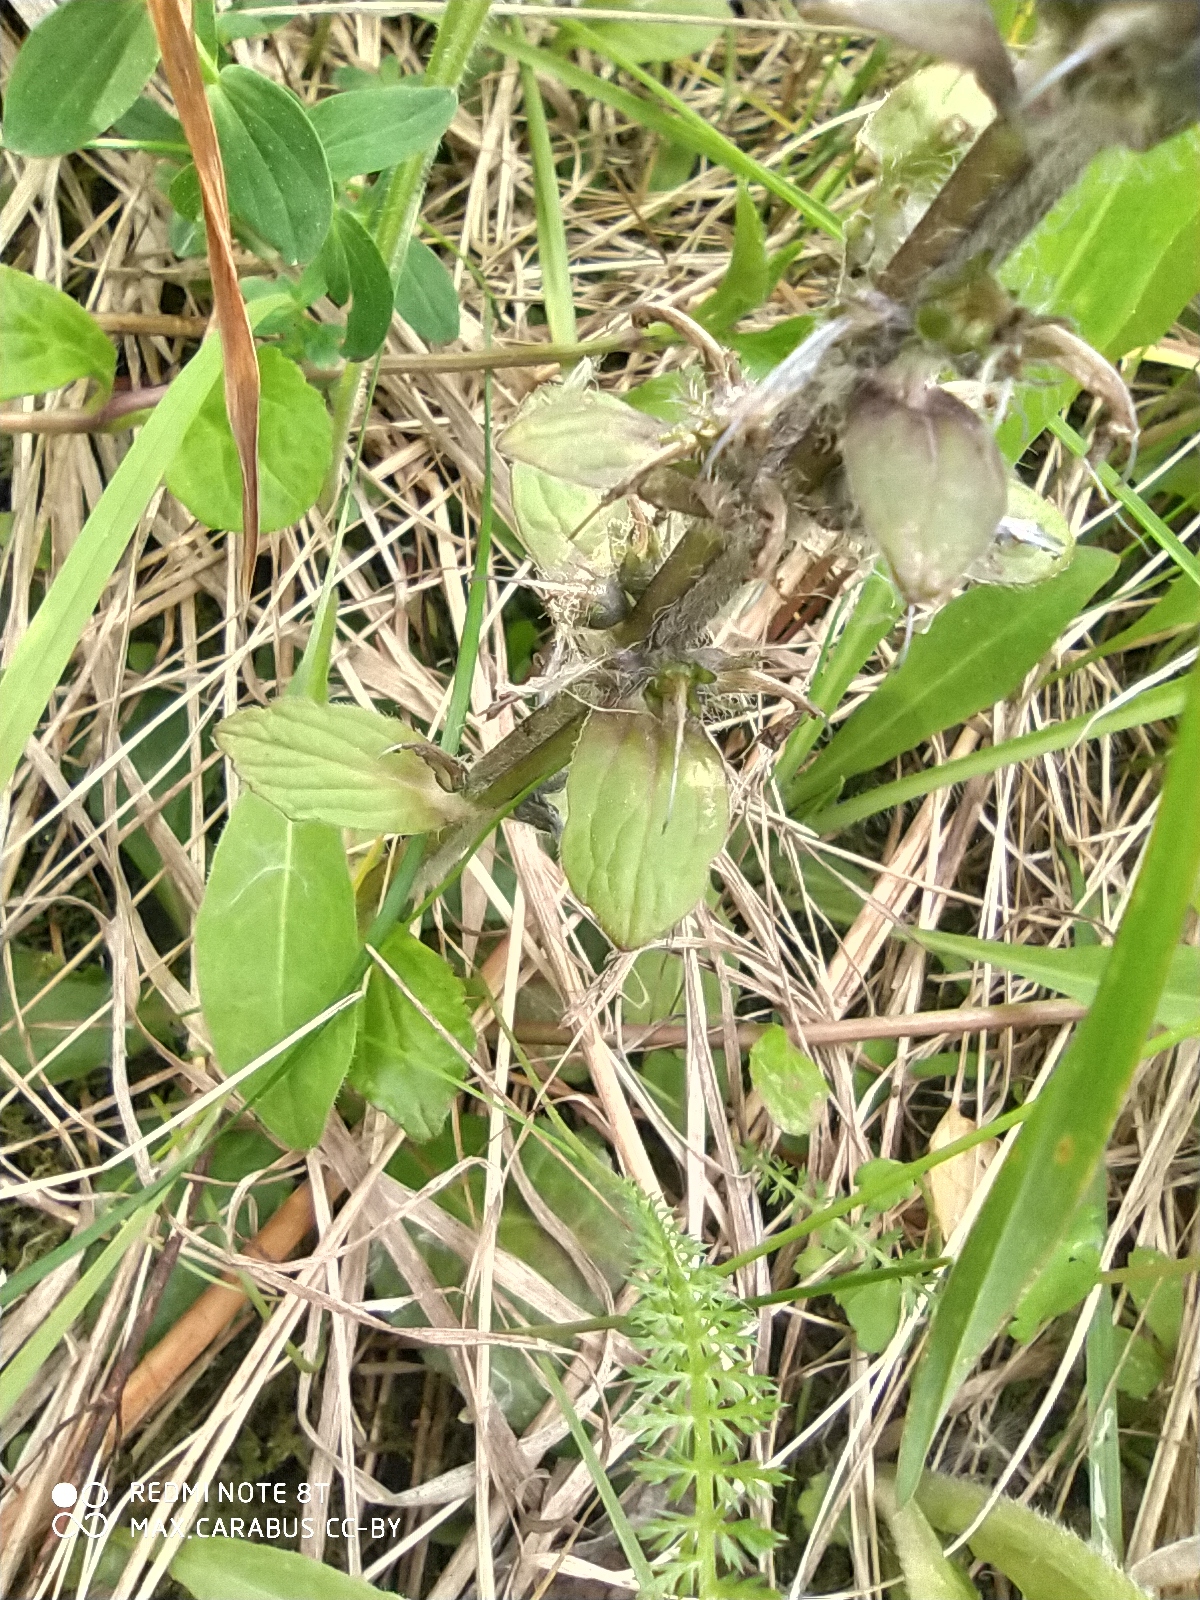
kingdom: Plantae
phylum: Tracheophyta
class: Magnoliopsida
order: Lamiales
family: Lamiaceae
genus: Ajuga
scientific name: Ajuga reptans
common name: Bugle
